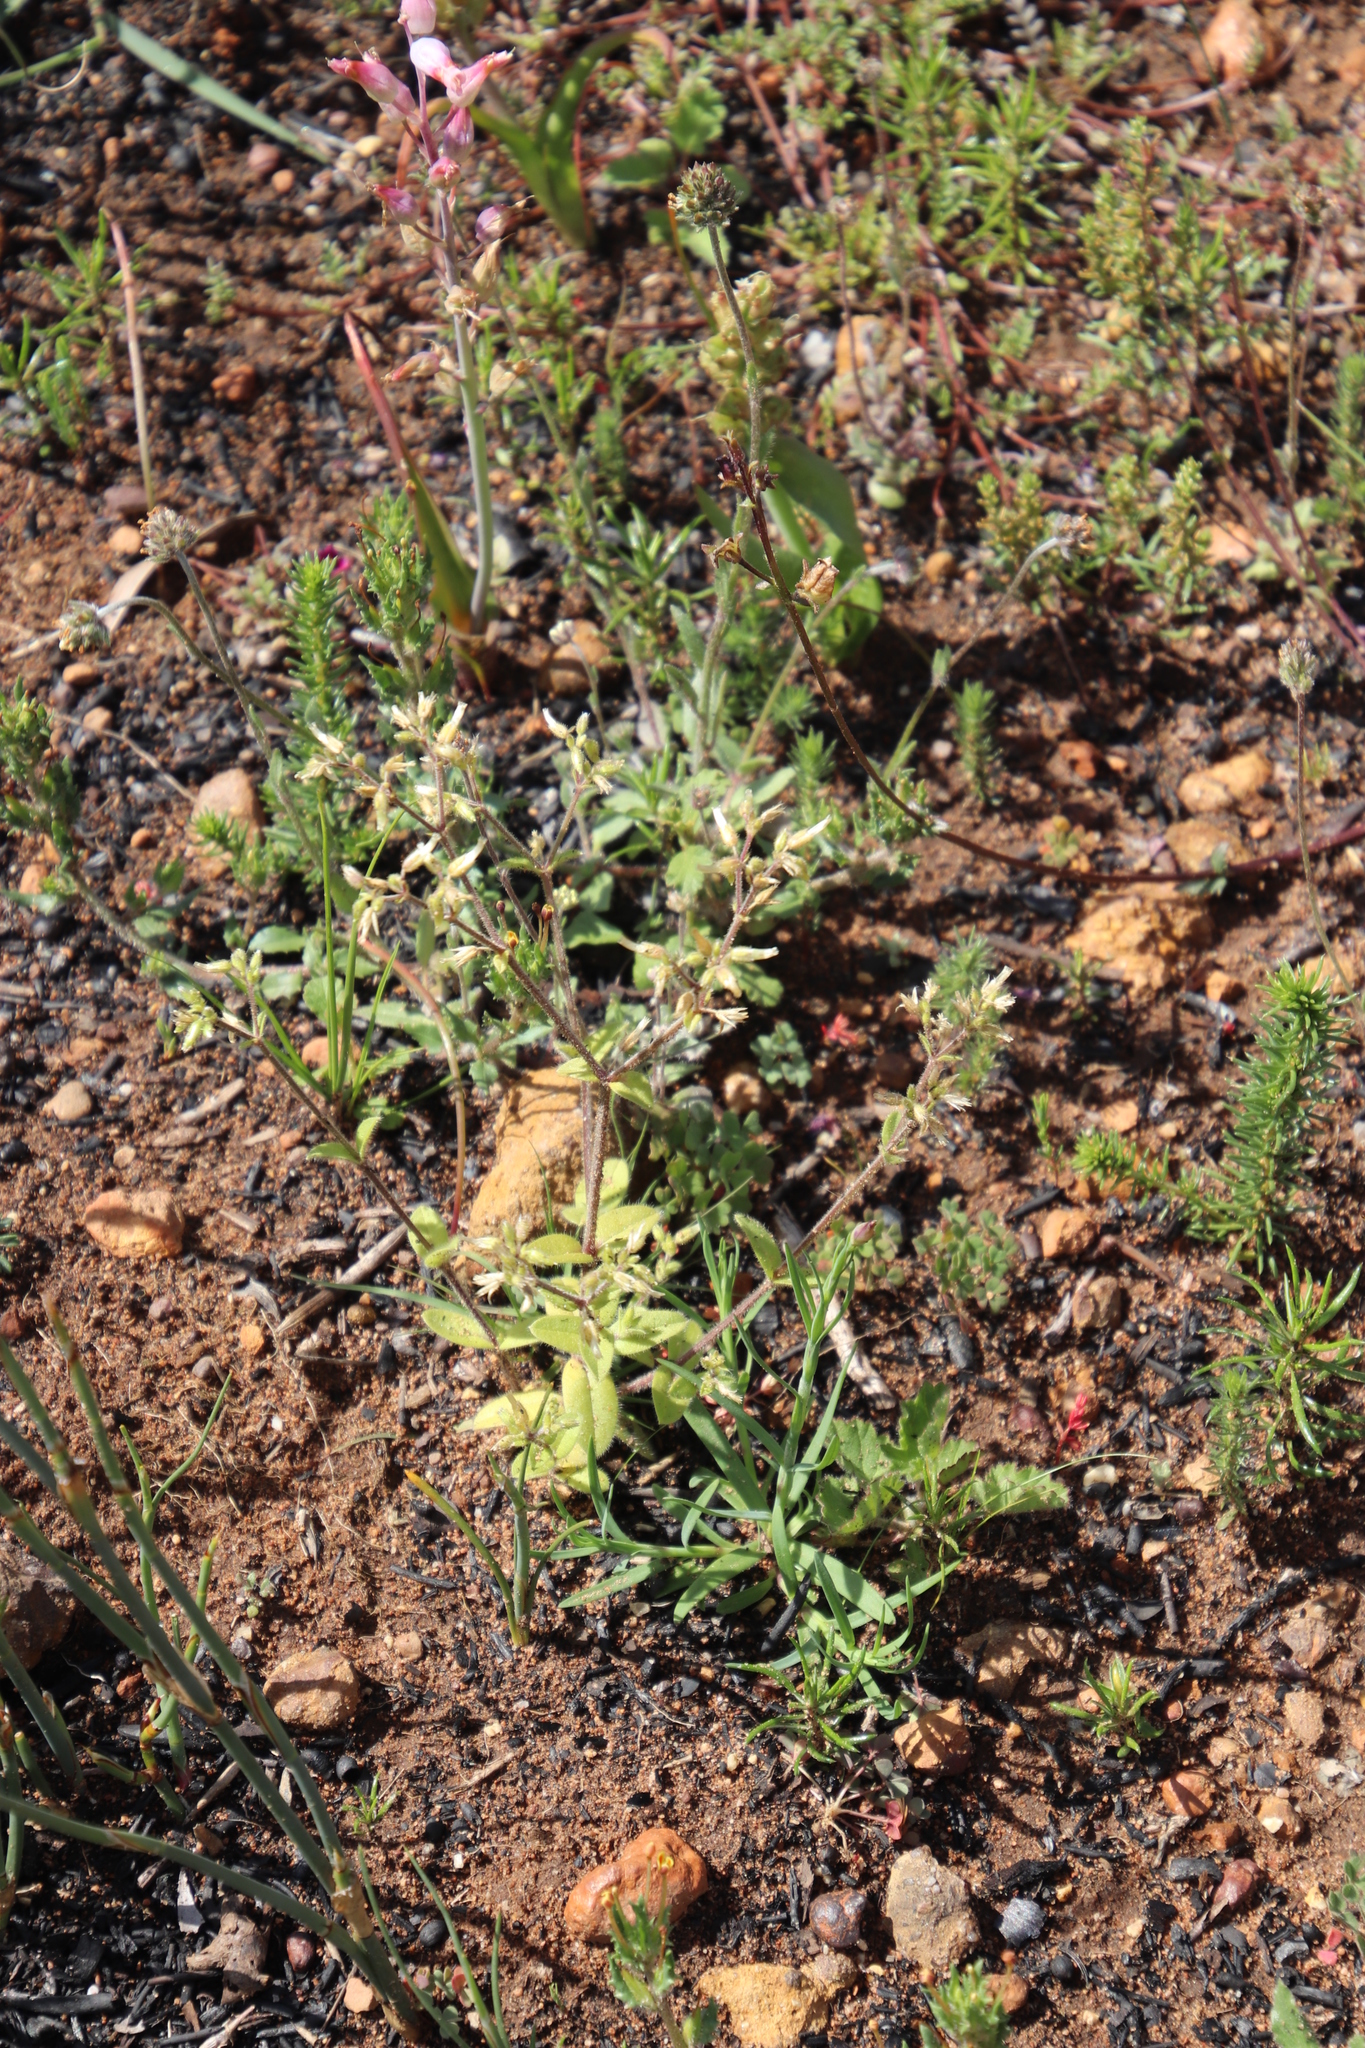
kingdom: Plantae
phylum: Tracheophyta
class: Magnoliopsida
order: Caryophyllales
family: Caryophyllaceae
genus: Cerastium
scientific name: Cerastium glomeratum
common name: Sticky chickweed
